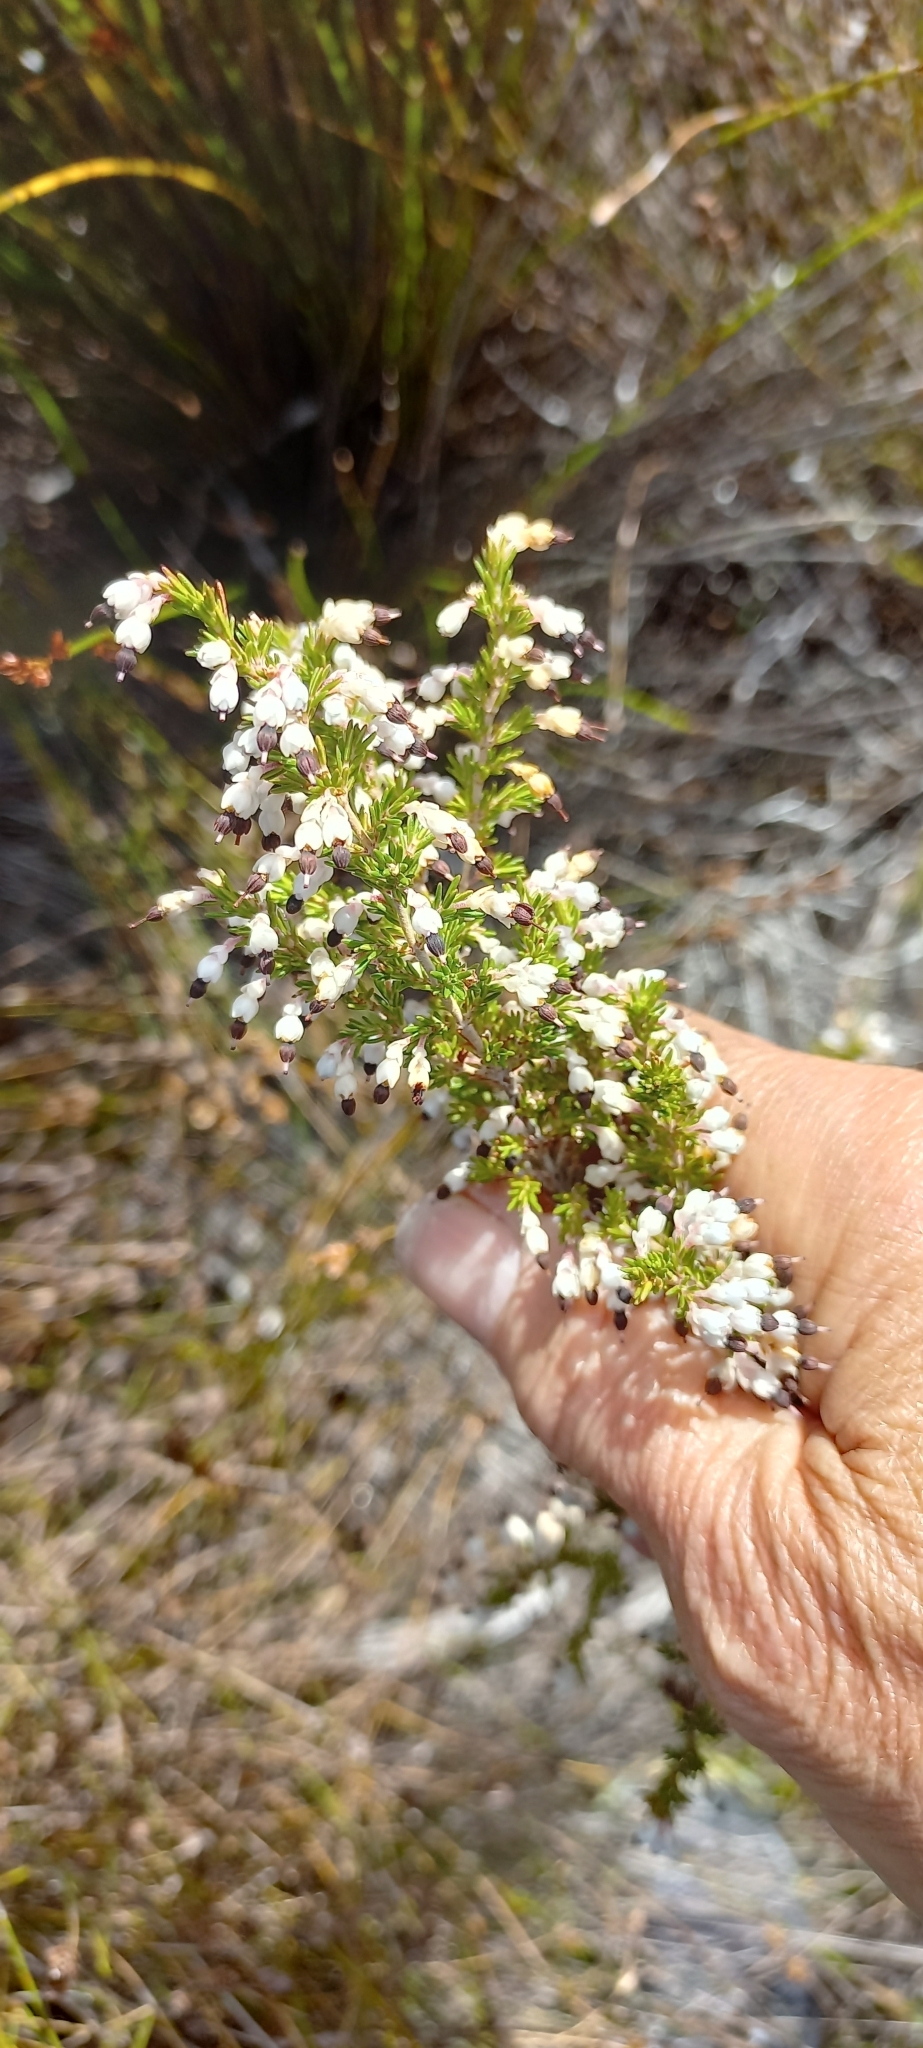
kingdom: Plantae
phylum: Tracheophyta
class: Magnoliopsida
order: Ericales
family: Ericaceae
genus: Erica
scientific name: Erica imbricata
